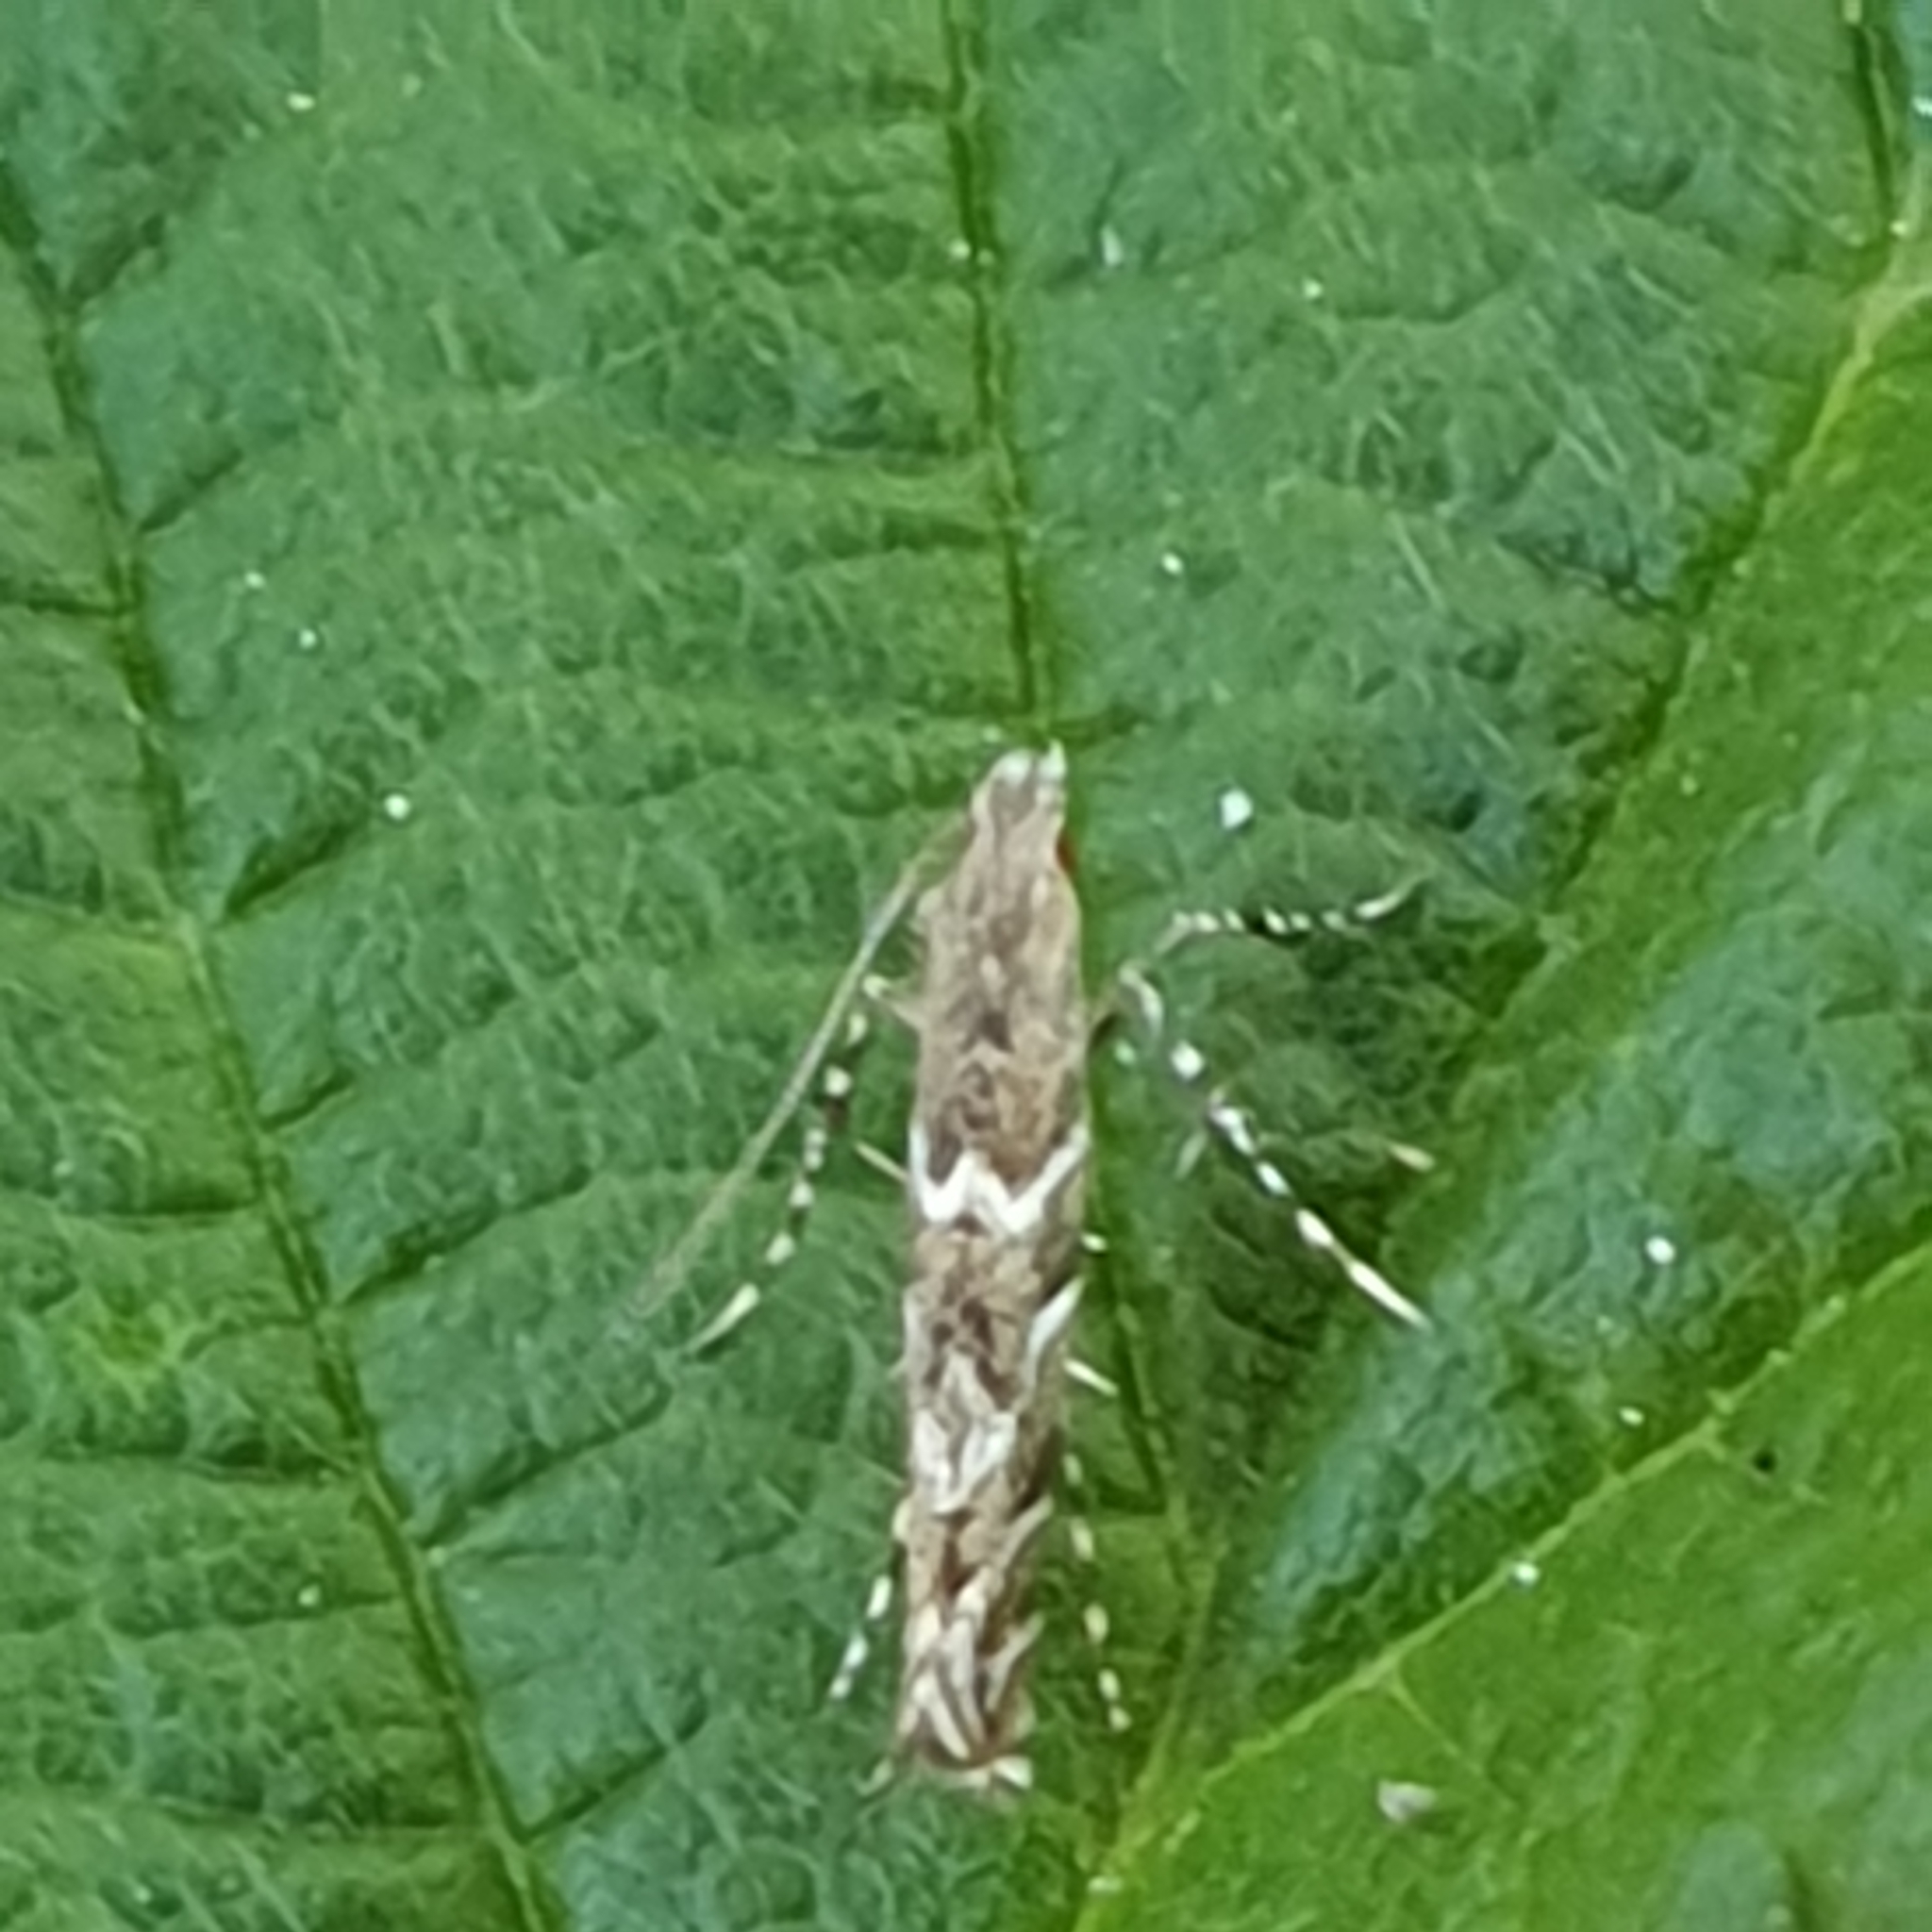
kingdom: Animalia
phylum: Arthropoda
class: Insecta
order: Lepidoptera
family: Gracillariidae
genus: Acrocercops
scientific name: Acrocercops brongniardella
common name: Brown oak slender
